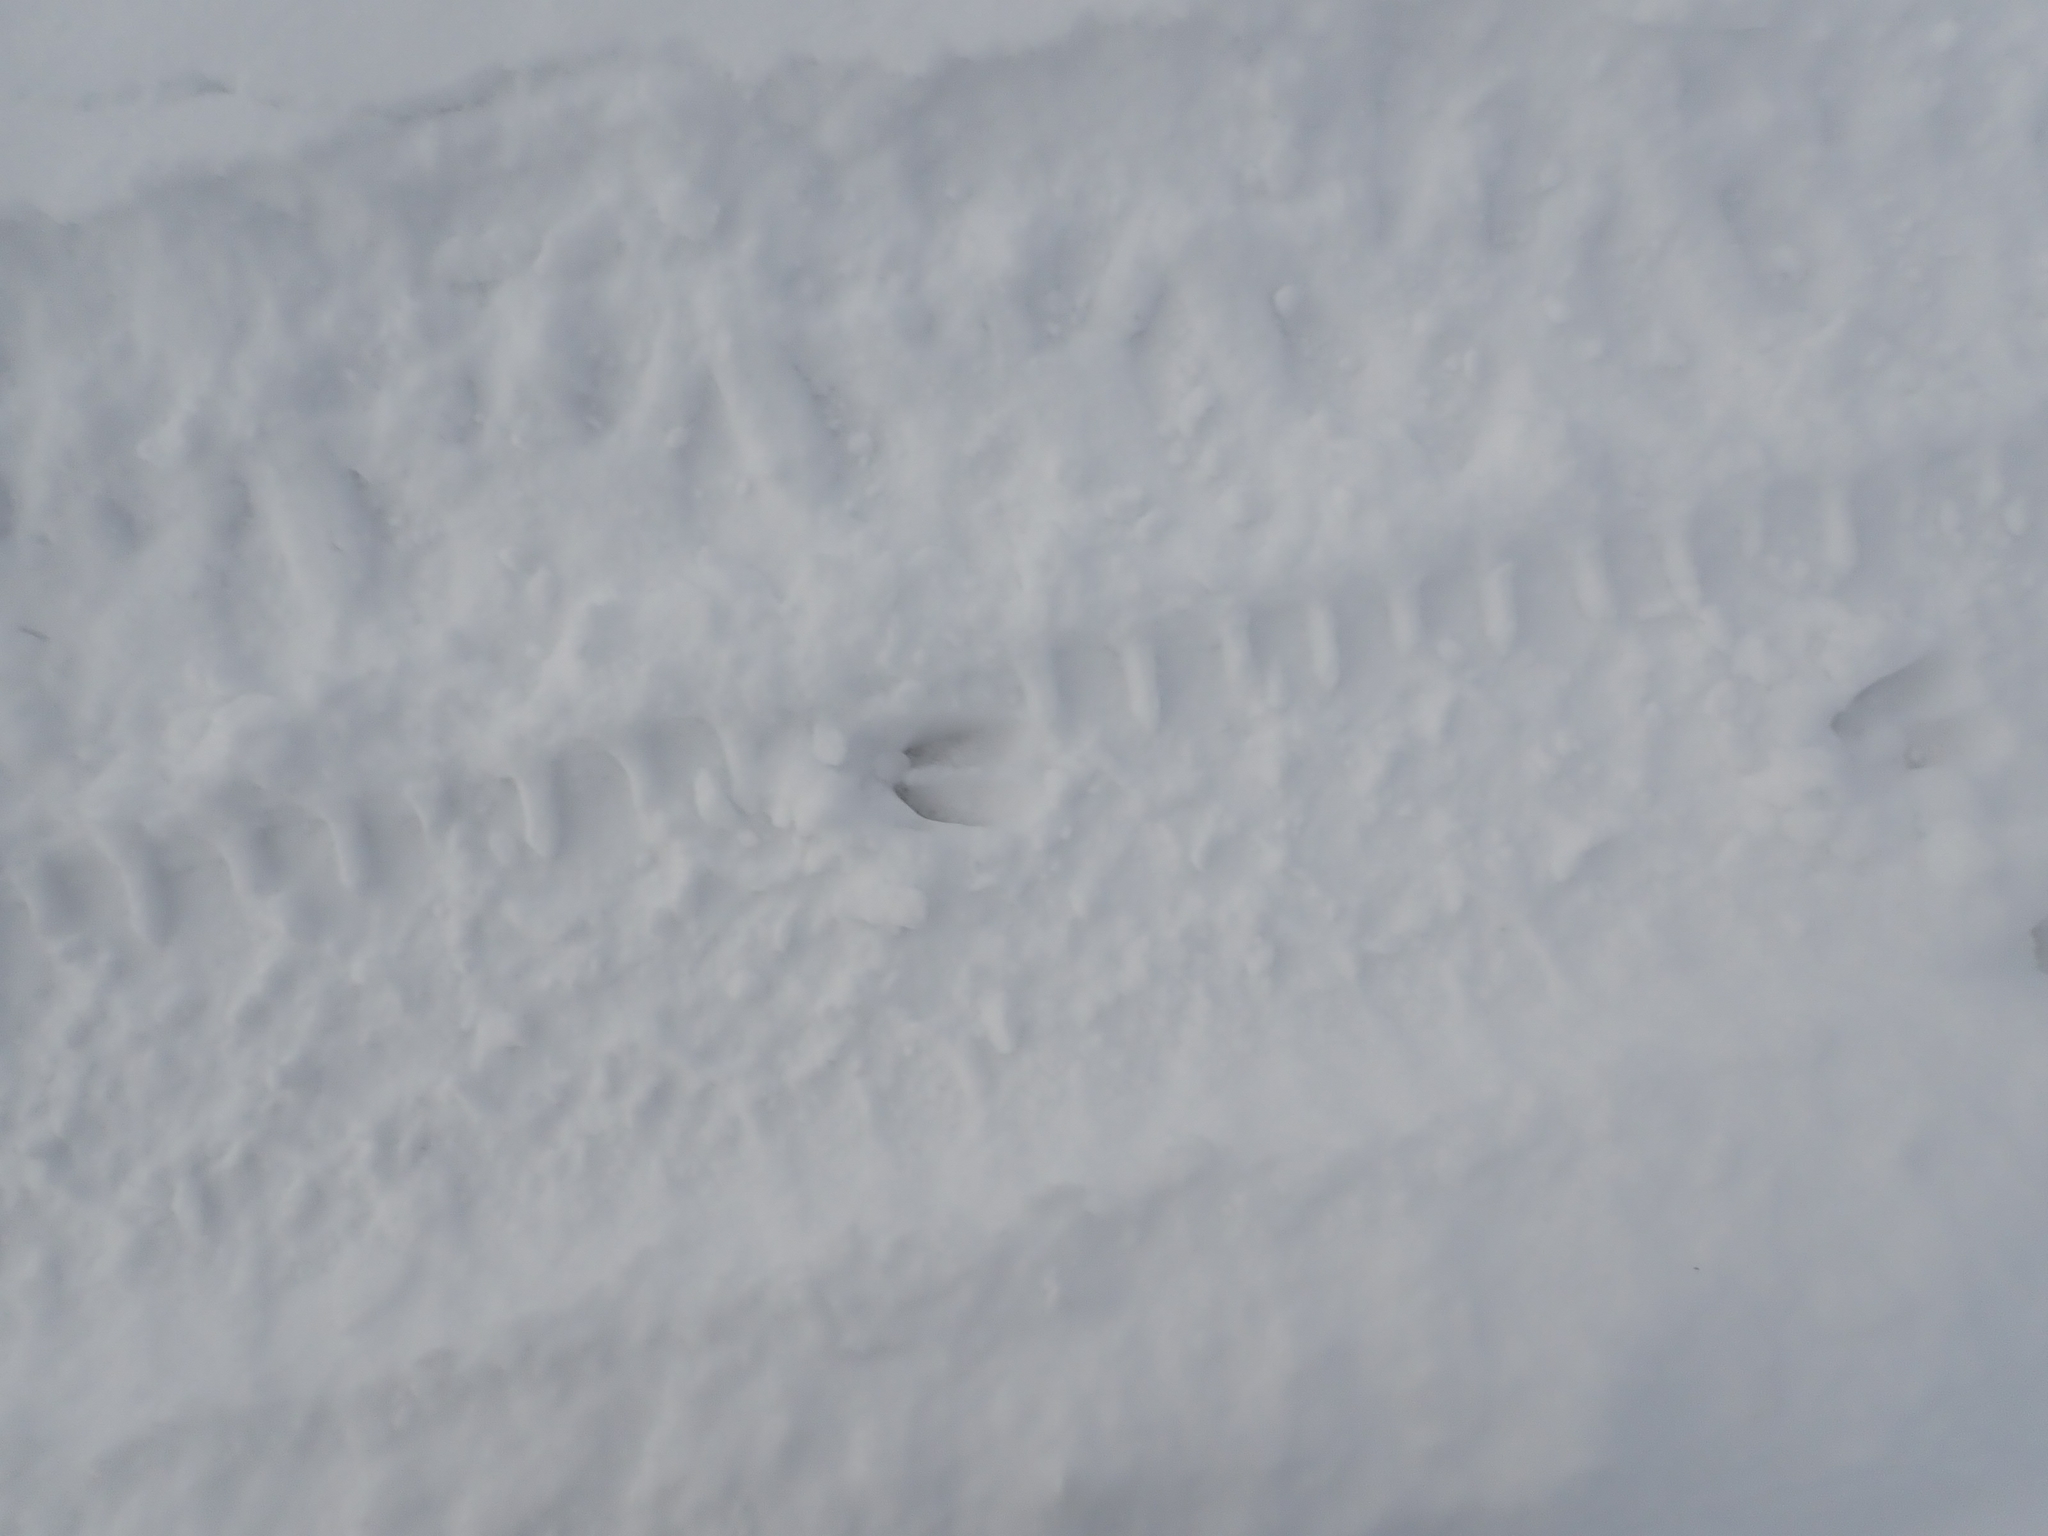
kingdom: Animalia
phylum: Chordata
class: Mammalia
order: Artiodactyla
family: Cervidae
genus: Odocoileus
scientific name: Odocoileus virginianus
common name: White-tailed deer
